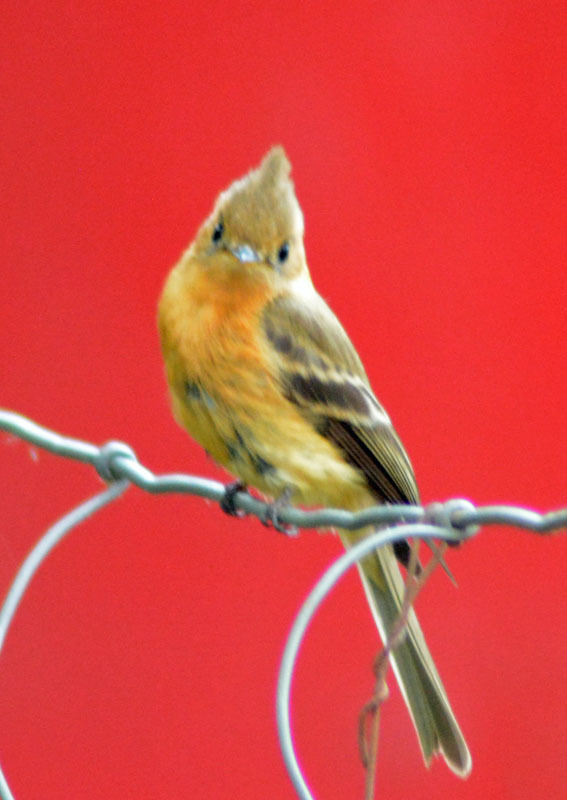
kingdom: Animalia
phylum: Chordata
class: Aves
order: Passeriformes
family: Tyrannidae
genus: Mitrephanes
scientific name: Mitrephanes phaeocercus
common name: Northern tufted flycatcher
